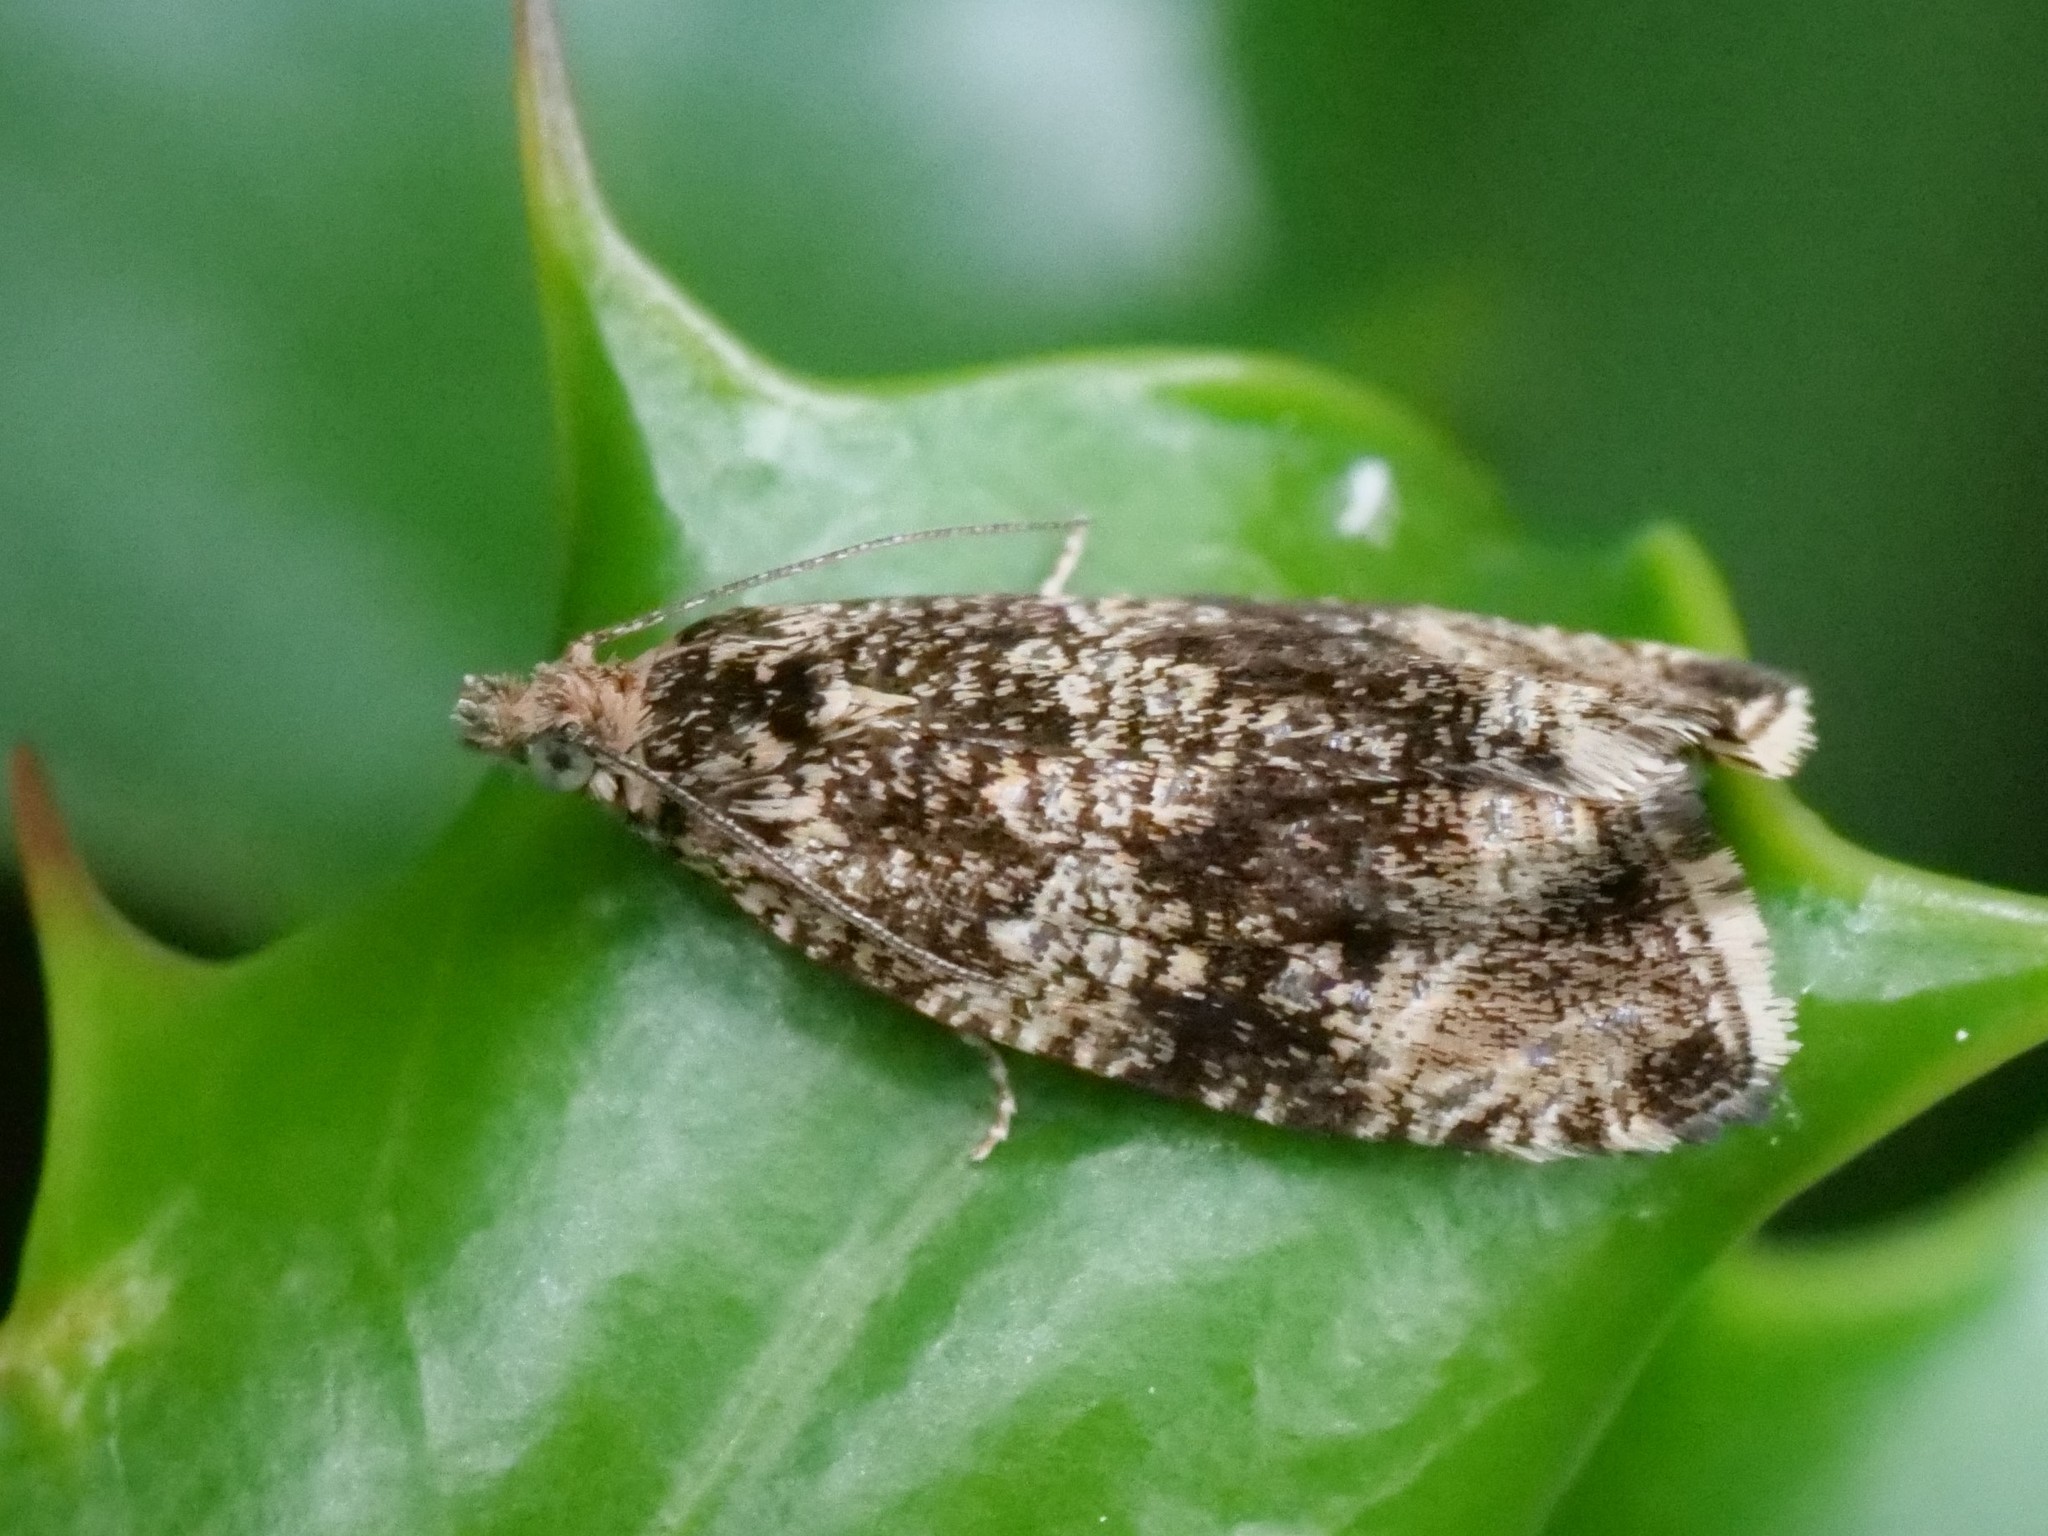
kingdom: Animalia
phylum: Arthropoda
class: Insecta
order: Lepidoptera
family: Tortricidae
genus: Syricoris
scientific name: Syricoris lacunana
